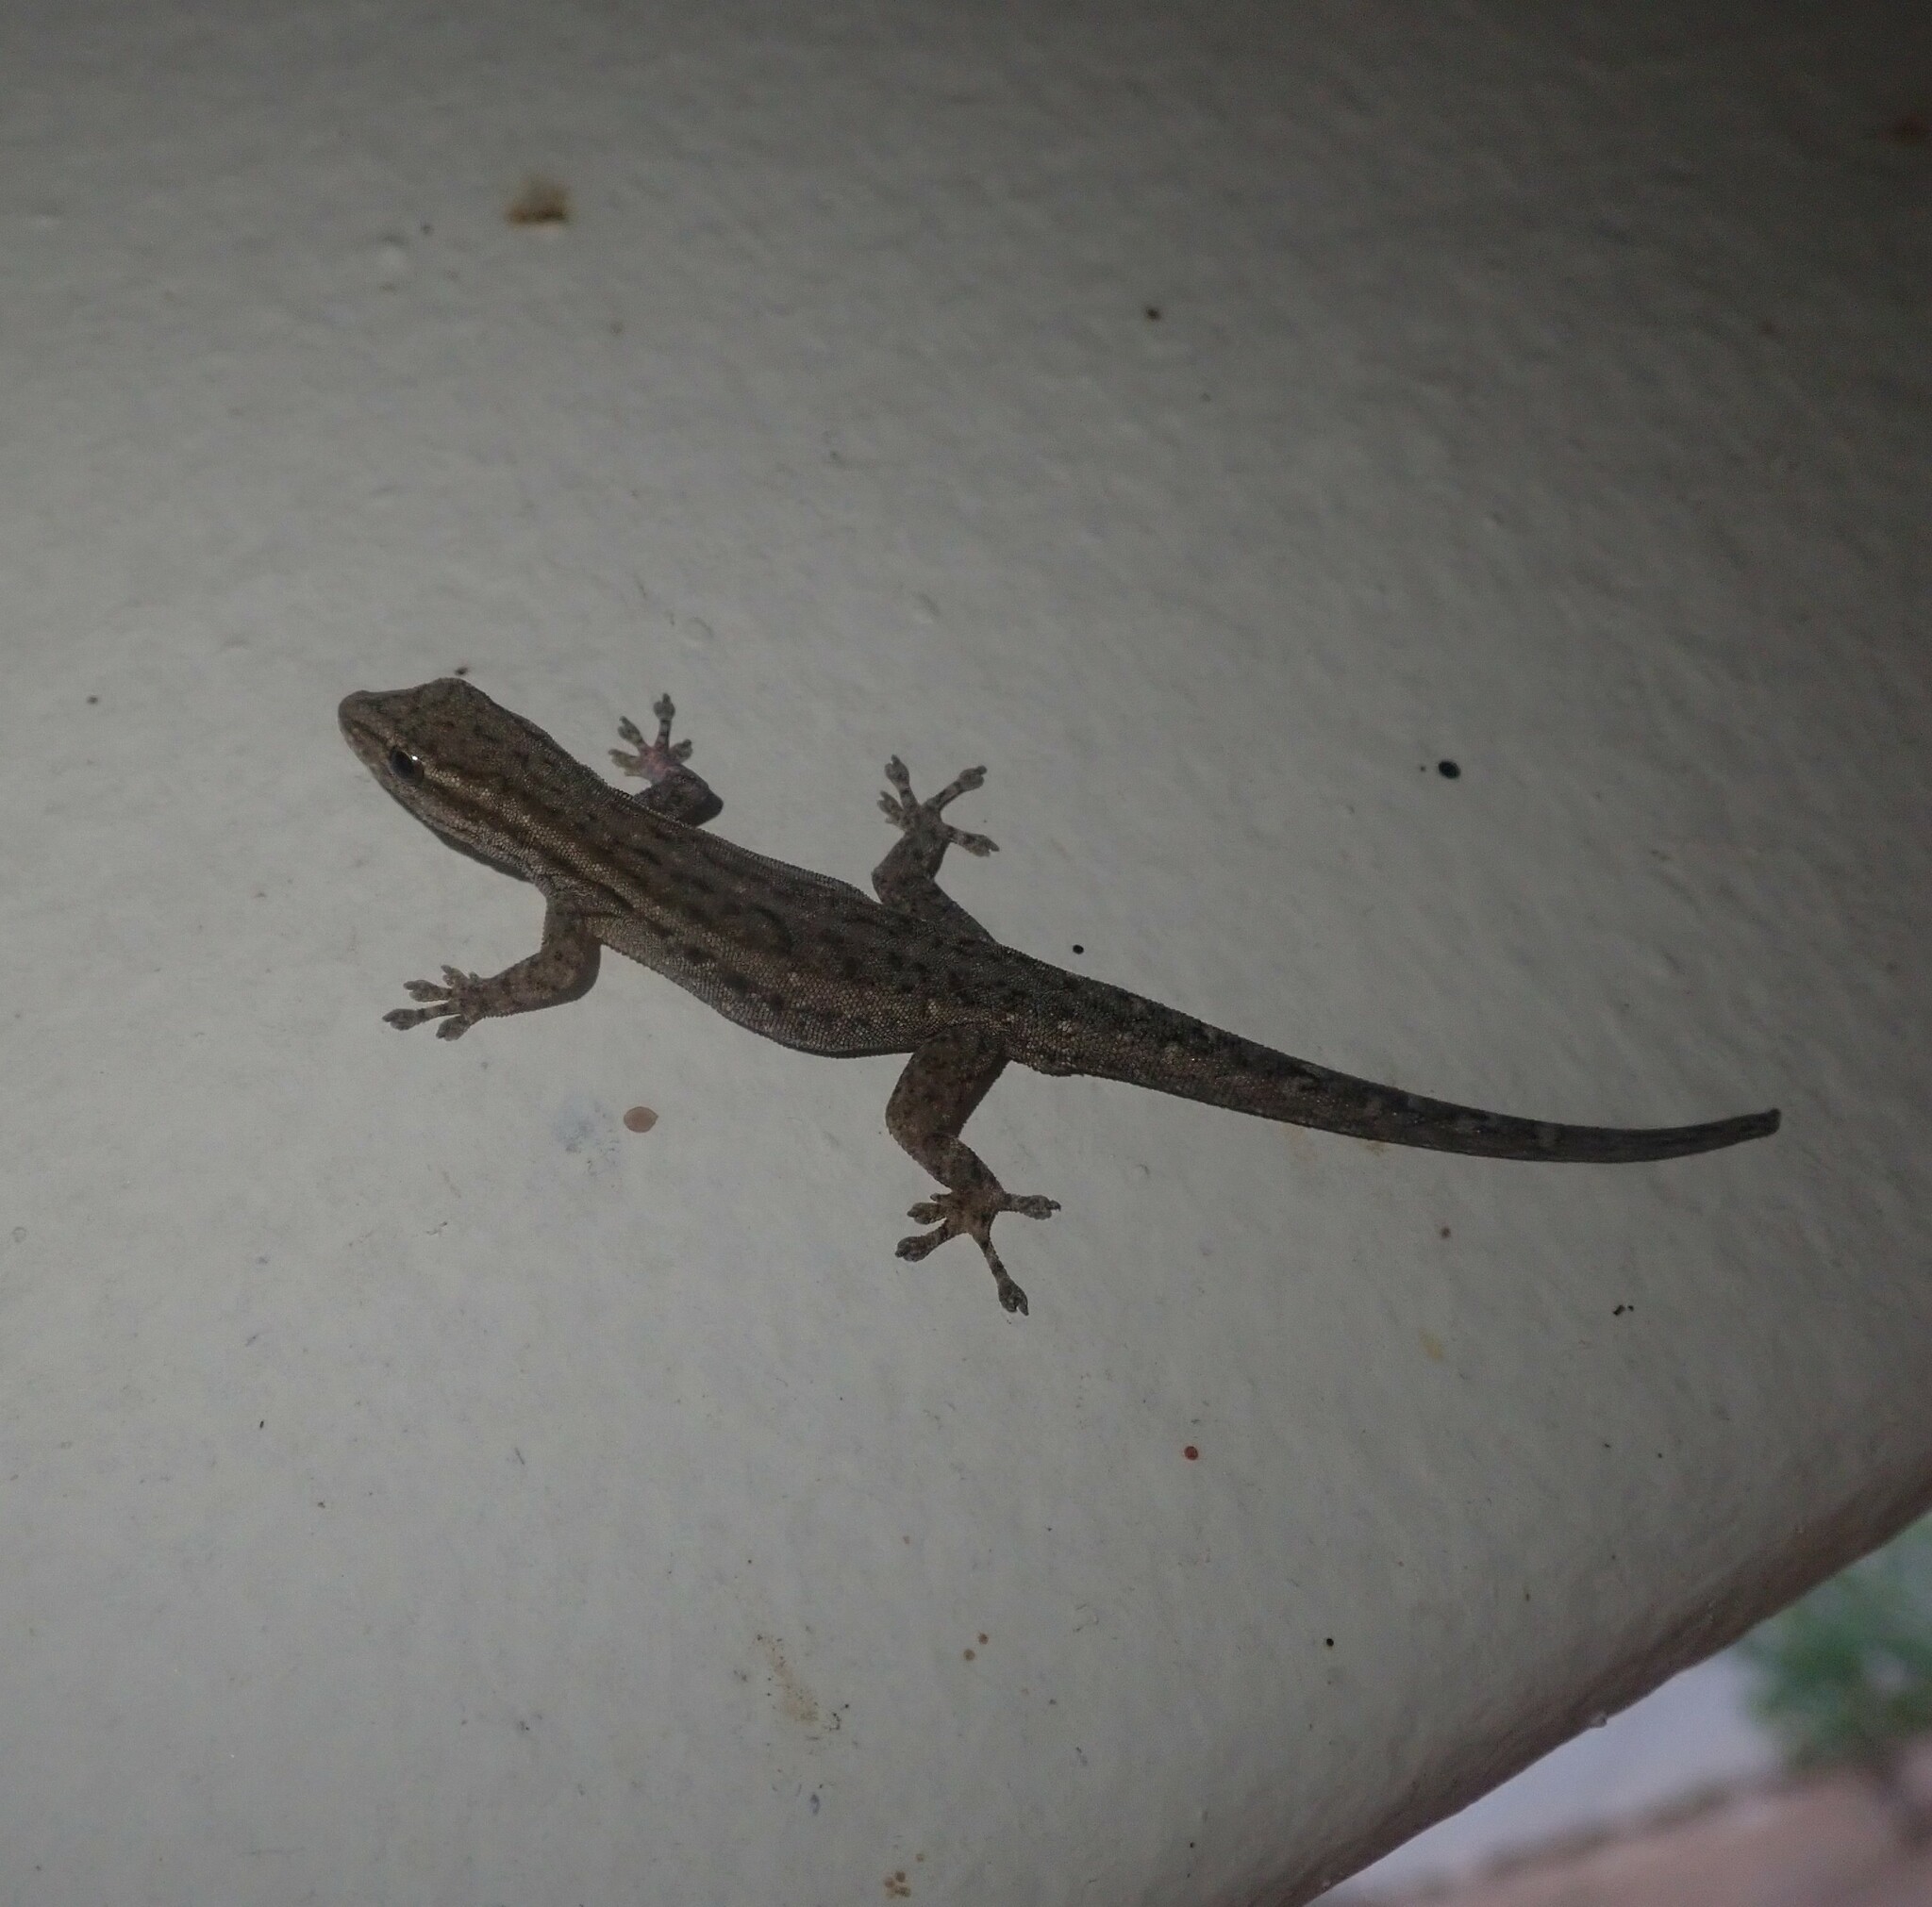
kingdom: Animalia
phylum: Chordata
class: Squamata
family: Gekkonidae
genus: Lygodactylus
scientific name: Lygodactylus capensis
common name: Cape dwarf gecko
